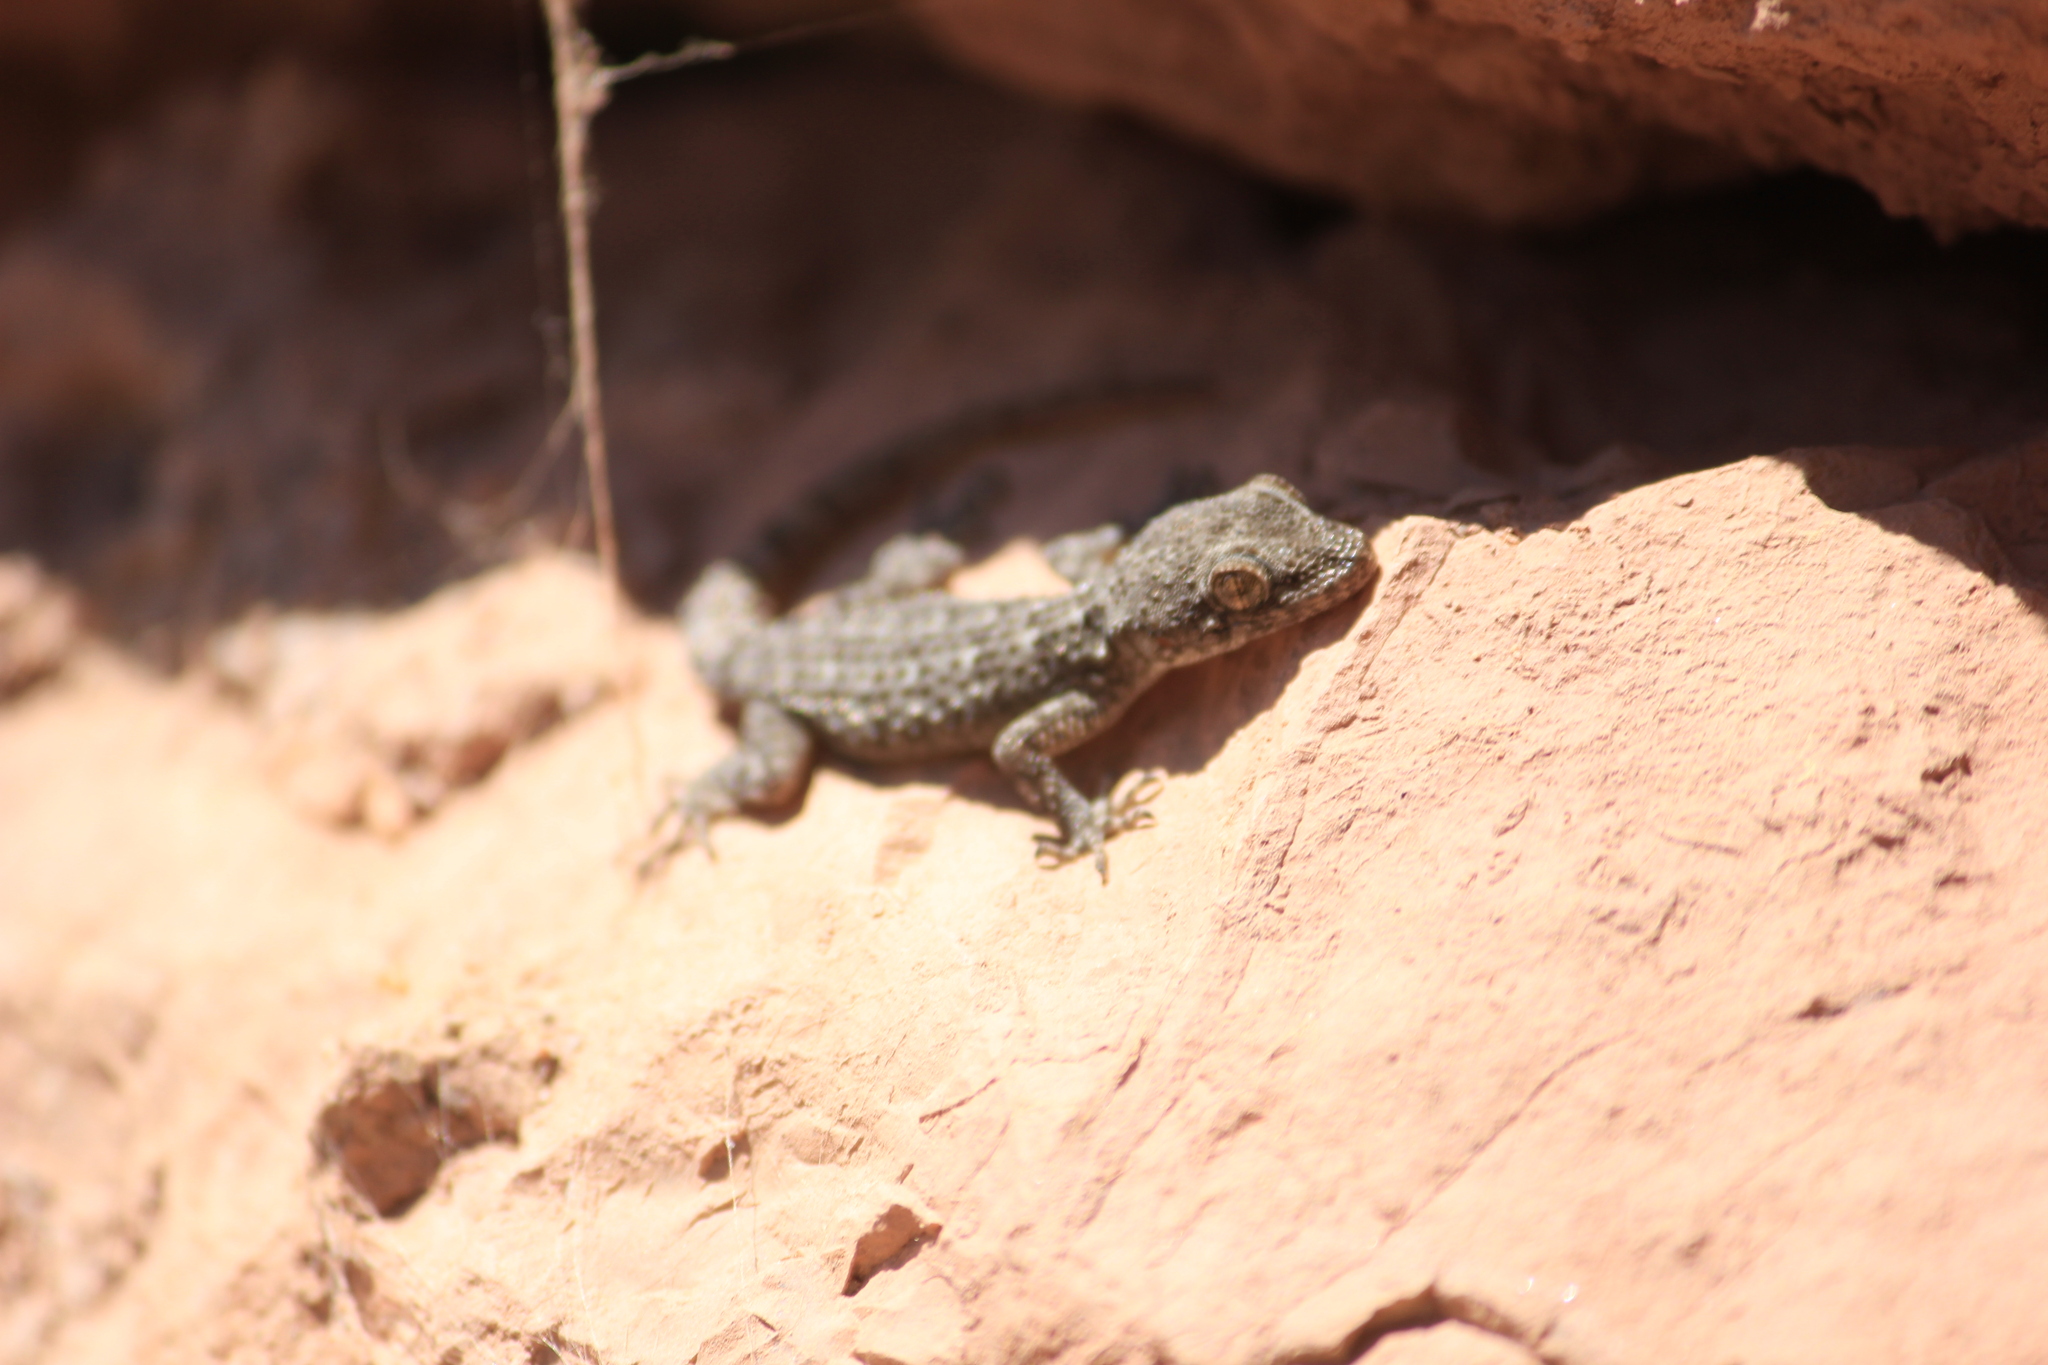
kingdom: Animalia
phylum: Chordata
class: Squamata
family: Gekkonidae
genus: Mediodactylus
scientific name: Mediodactylus kotschyi
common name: Kotschy's gecko
